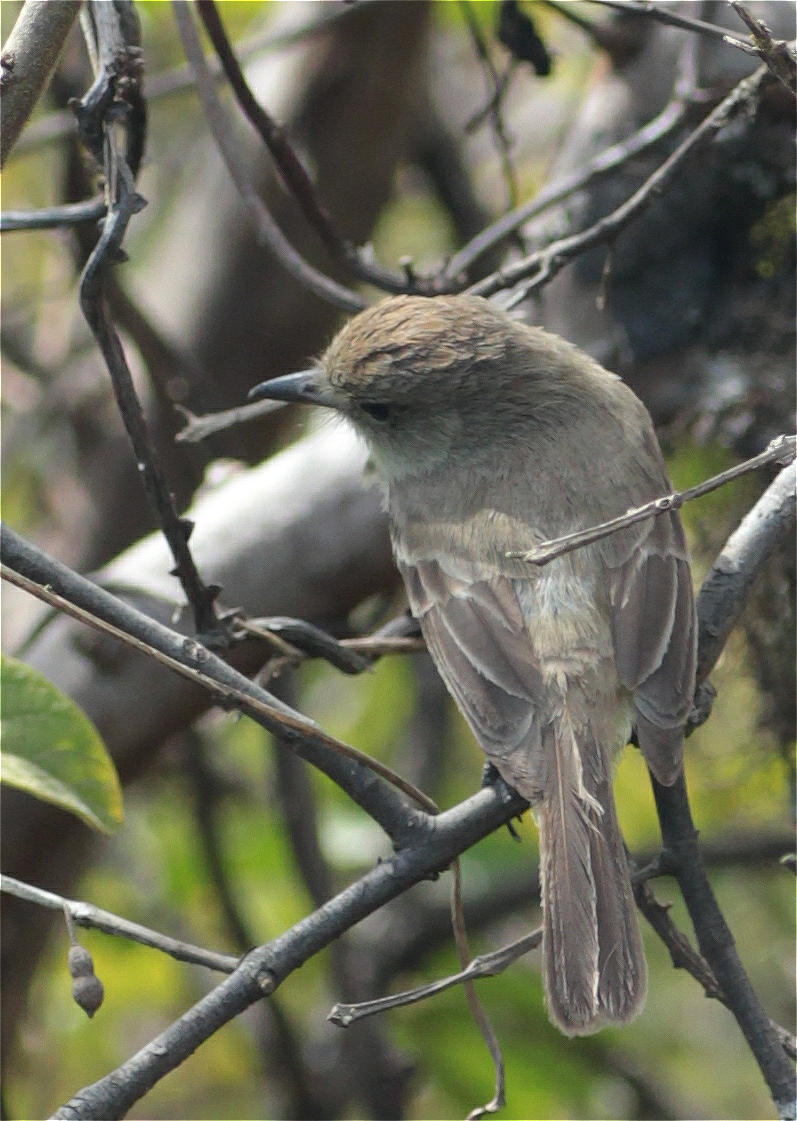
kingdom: Animalia
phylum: Chordata
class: Aves
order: Passeriformes
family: Tyrannidae
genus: Myiarchus
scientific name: Myiarchus magnirostris
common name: Galapagos flycatcher
